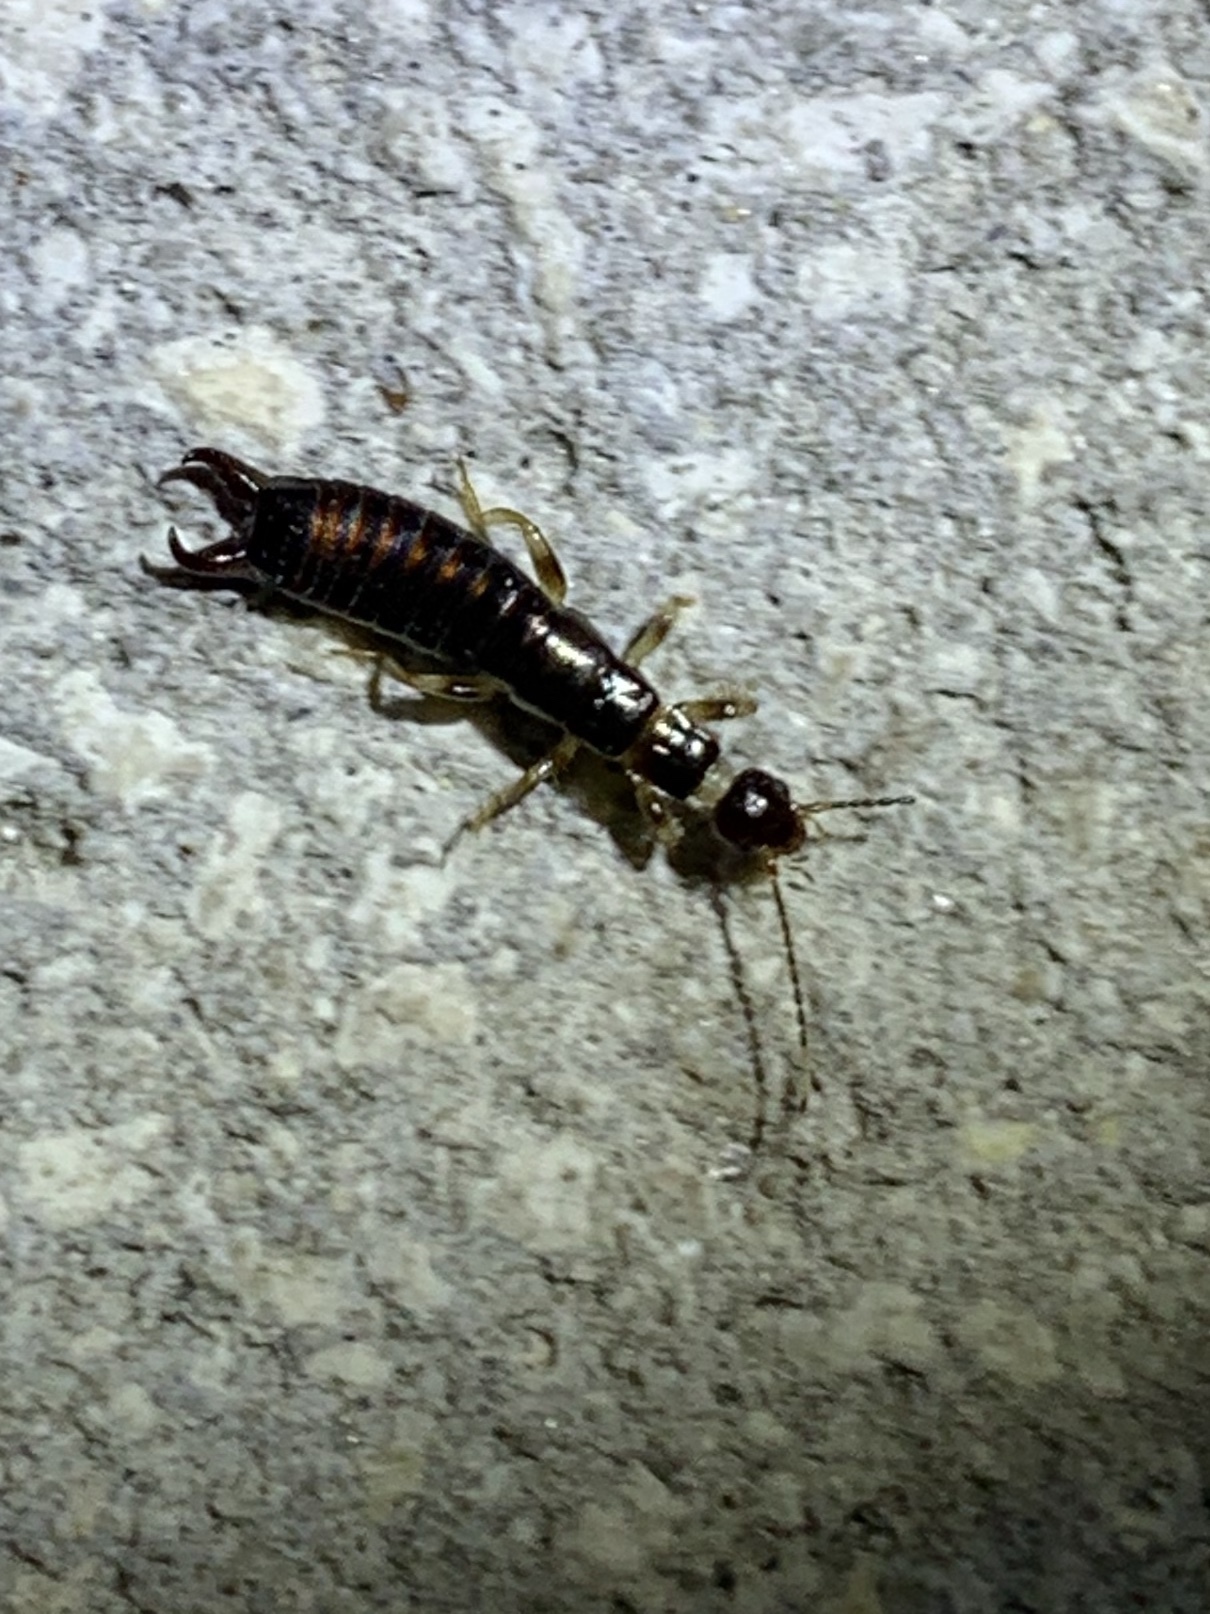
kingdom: Animalia
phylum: Arthropoda
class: Insecta
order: Dermaptera
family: Anisolabididae
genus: Euborellia
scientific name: Euborellia annulipes
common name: Ringlegged earwig
